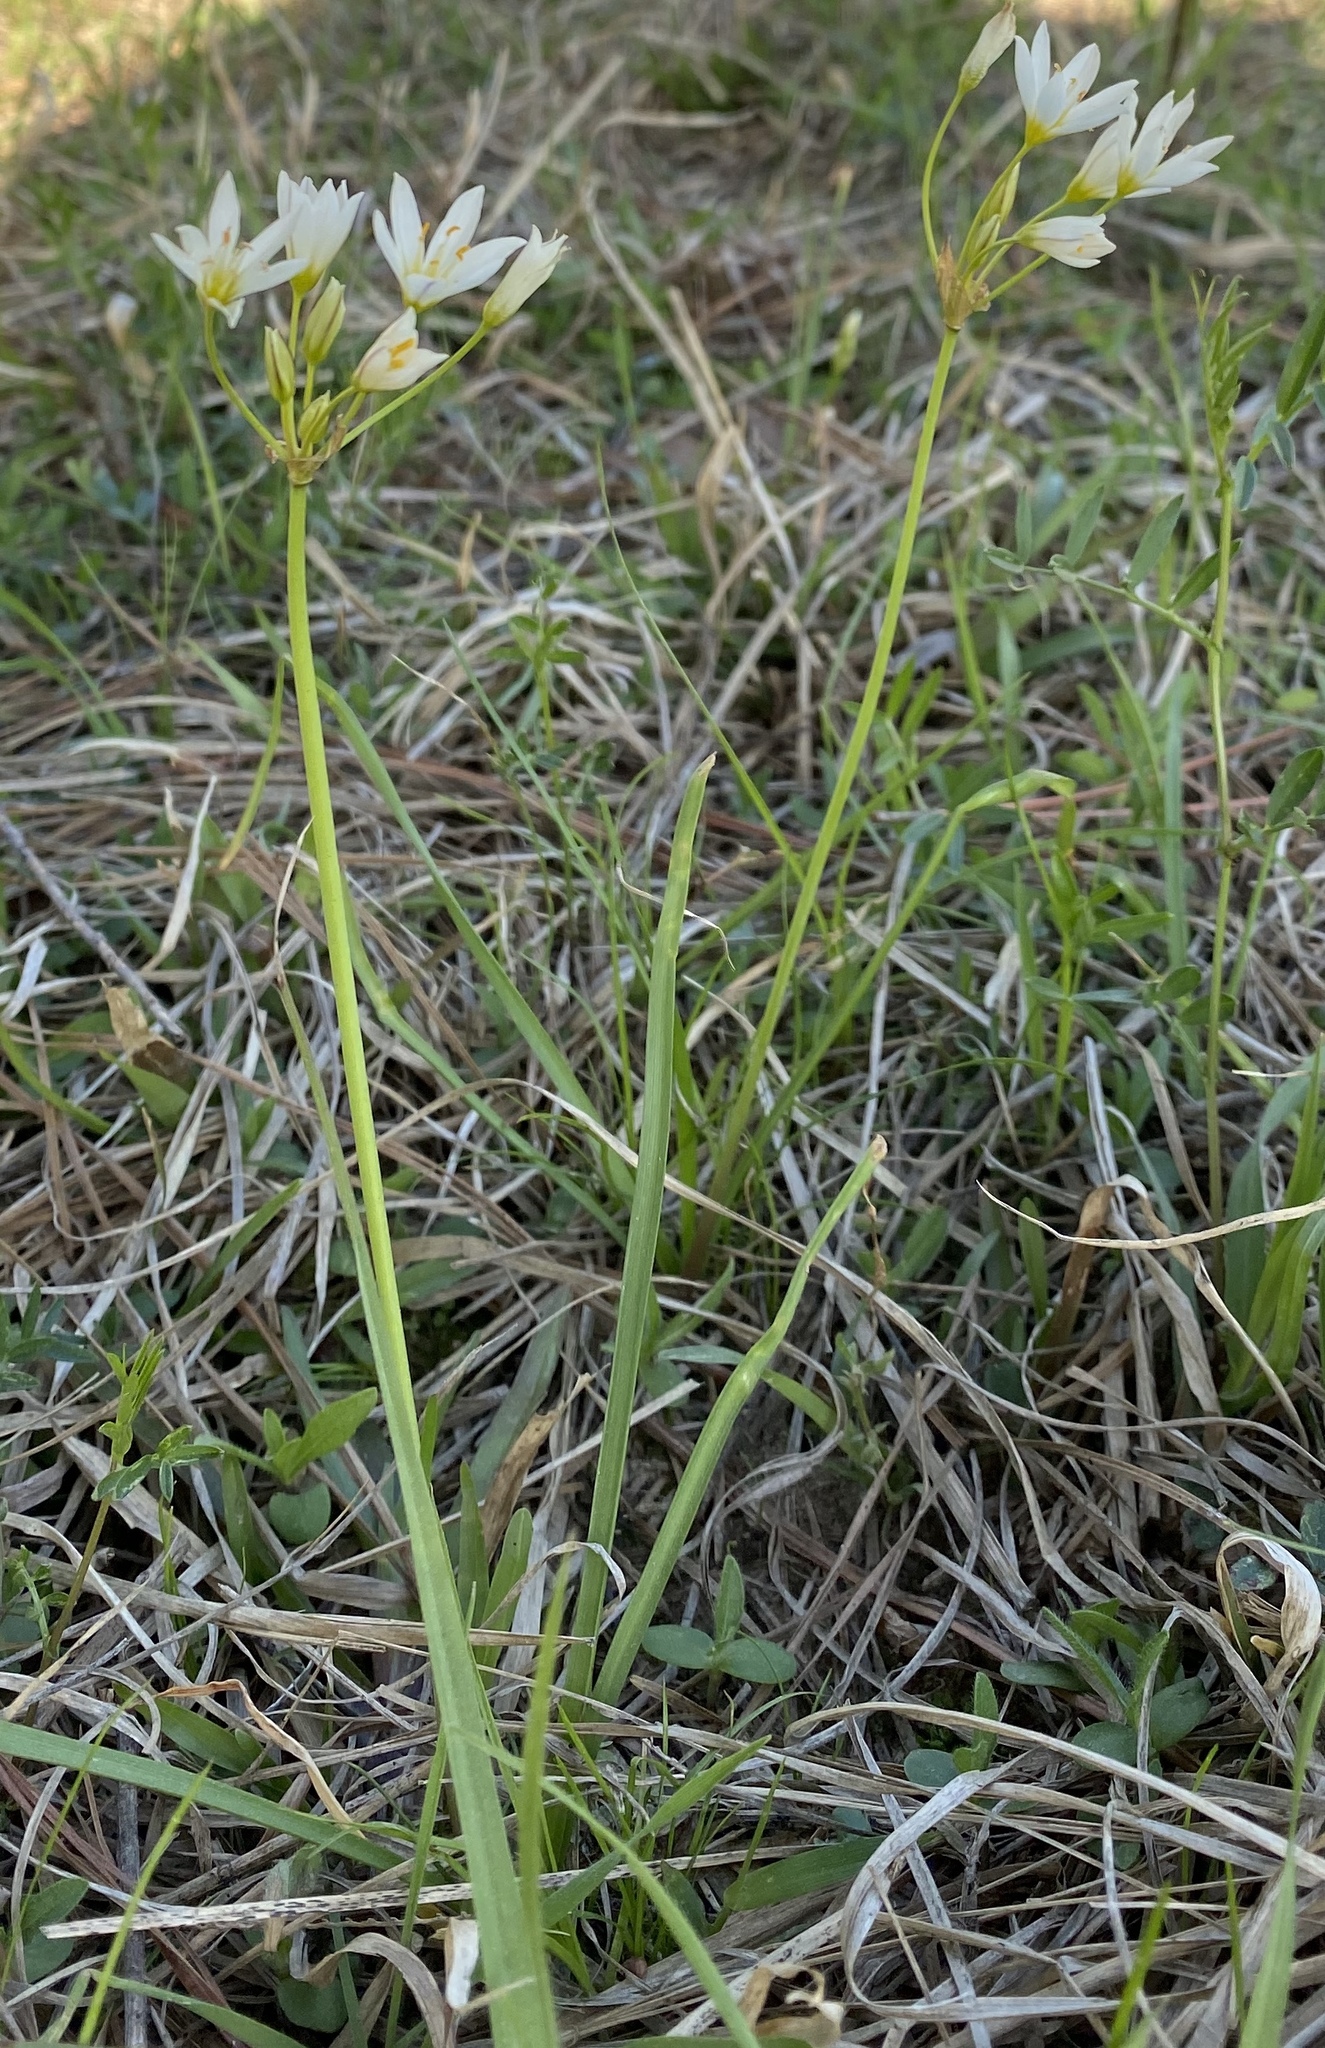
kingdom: Plantae
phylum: Tracheophyta
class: Liliopsida
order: Asparagales
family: Amaryllidaceae
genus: Nothoscordum
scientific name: Nothoscordum bivalve
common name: Crow-poison
